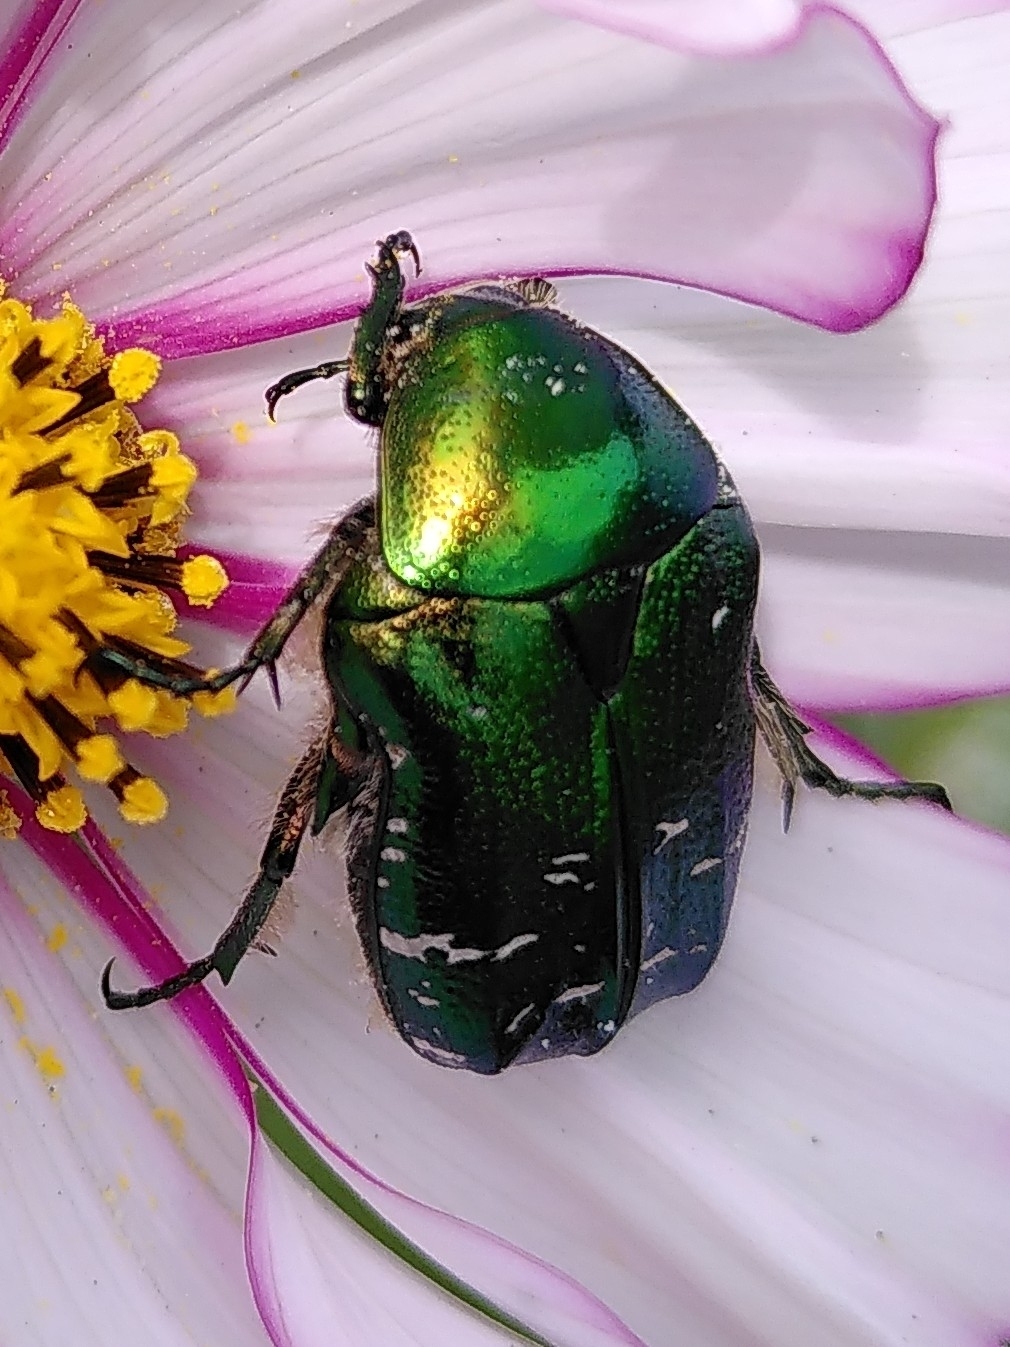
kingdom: Animalia
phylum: Arthropoda
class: Insecta
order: Coleoptera
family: Scarabaeidae
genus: Cetonia
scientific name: Cetonia aurata
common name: Rose chafer
